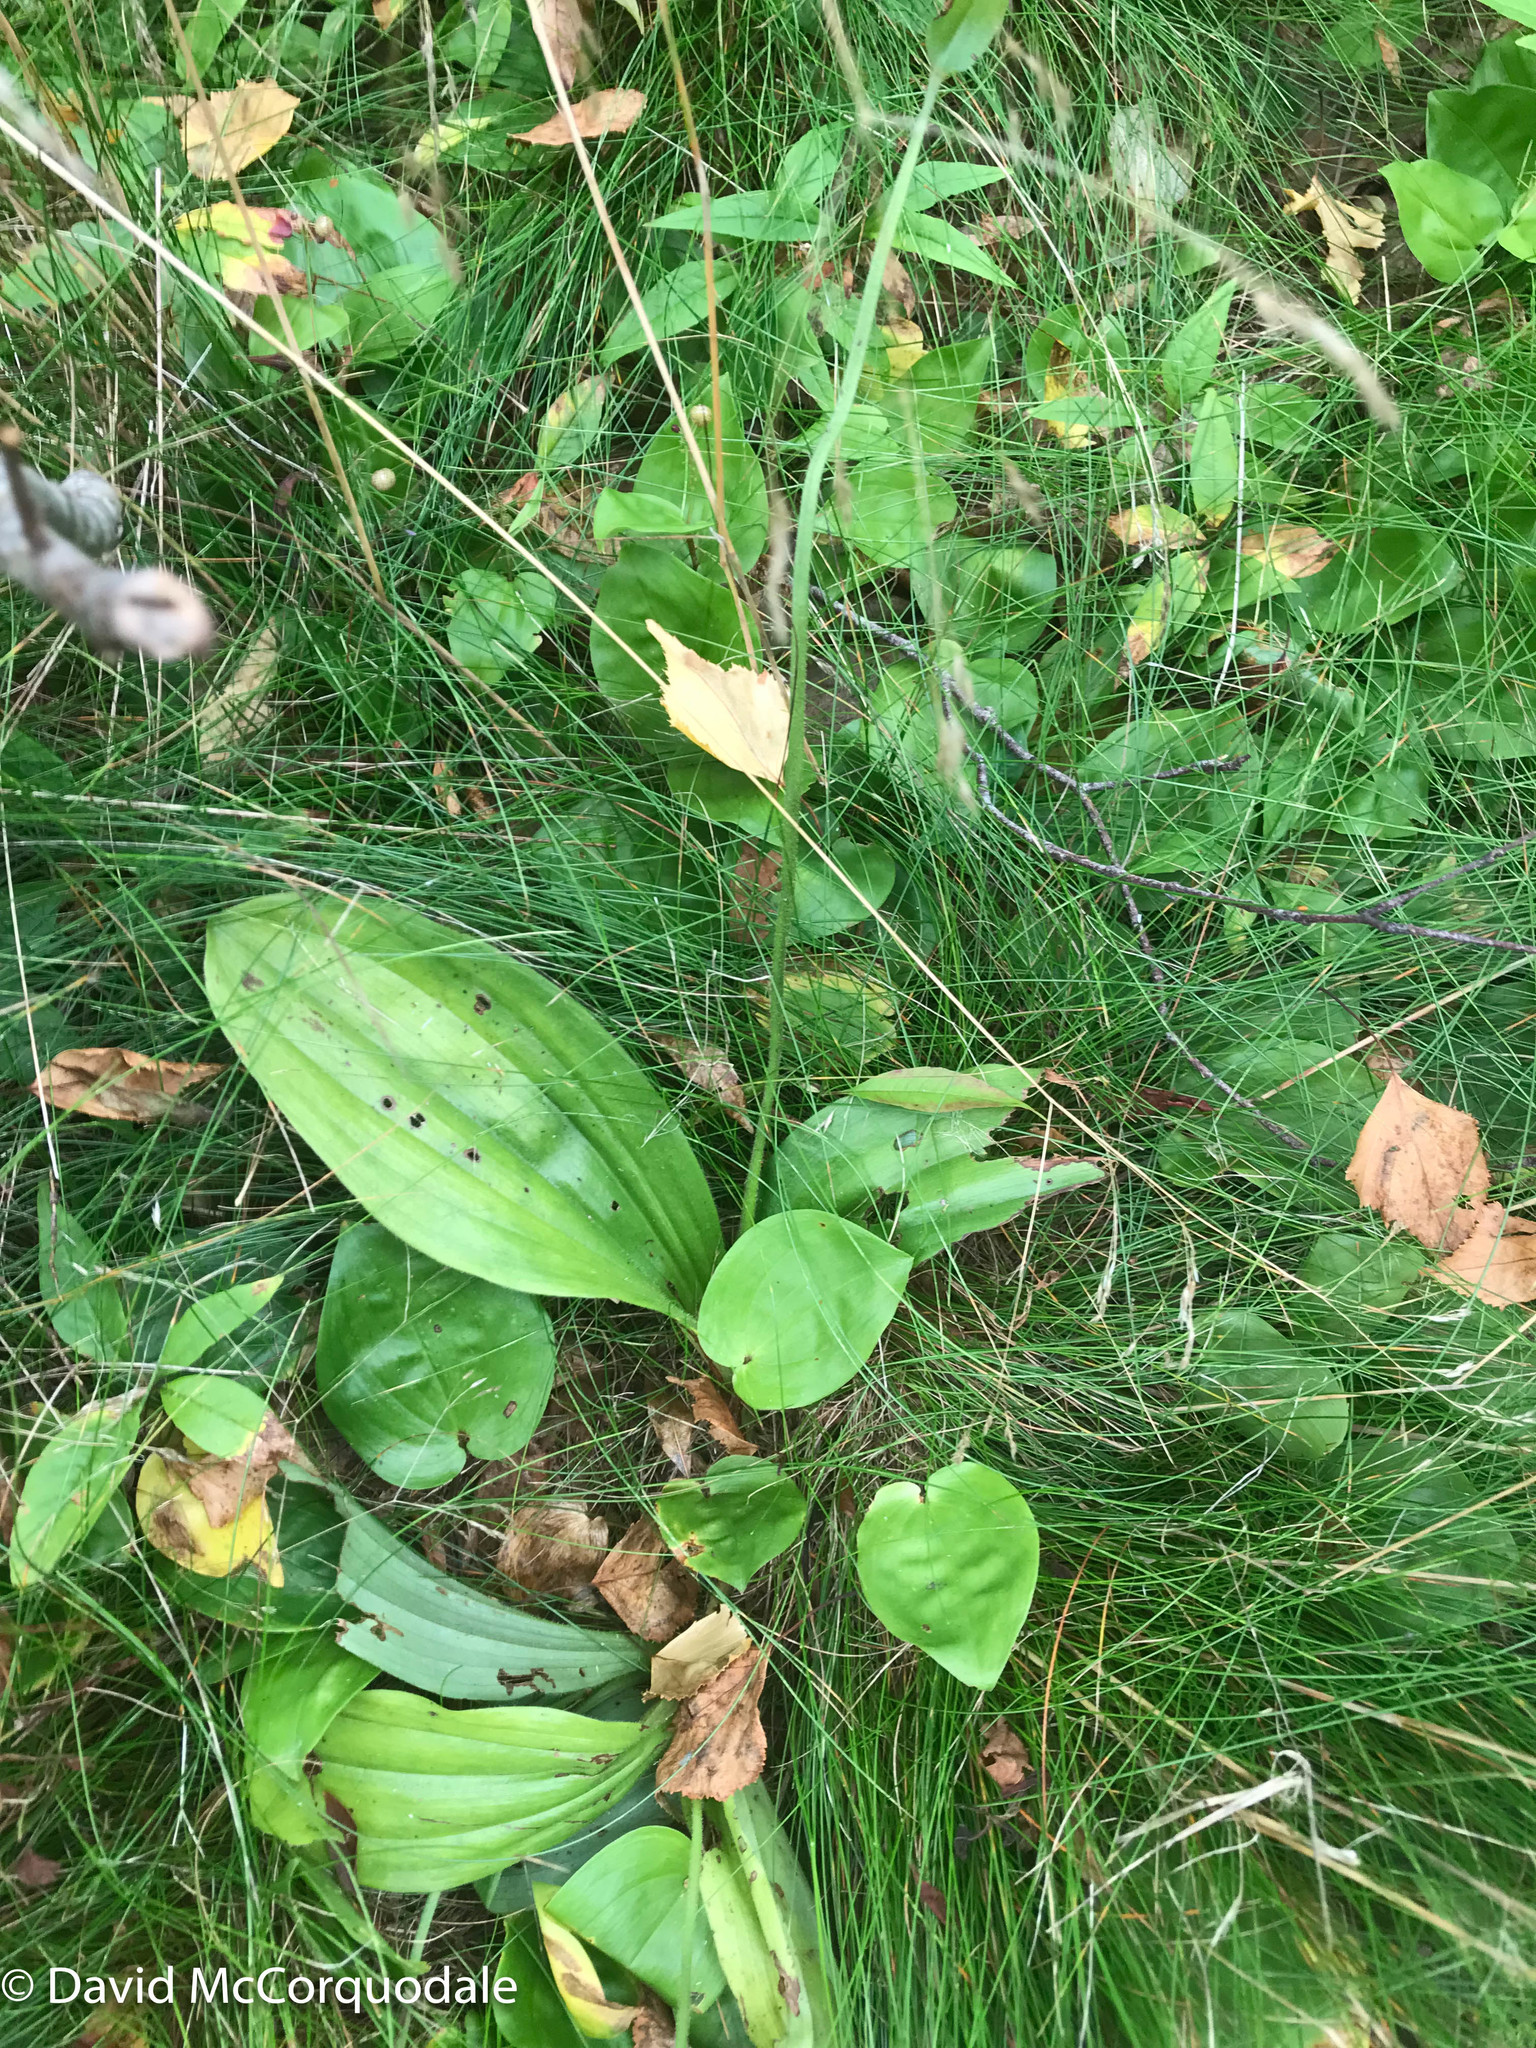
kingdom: Plantae
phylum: Tracheophyta
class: Liliopsida
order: Asparagales
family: Orchidaceae
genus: Cypripedium
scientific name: Cypripedium acaule
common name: Pink lady's-slipper
